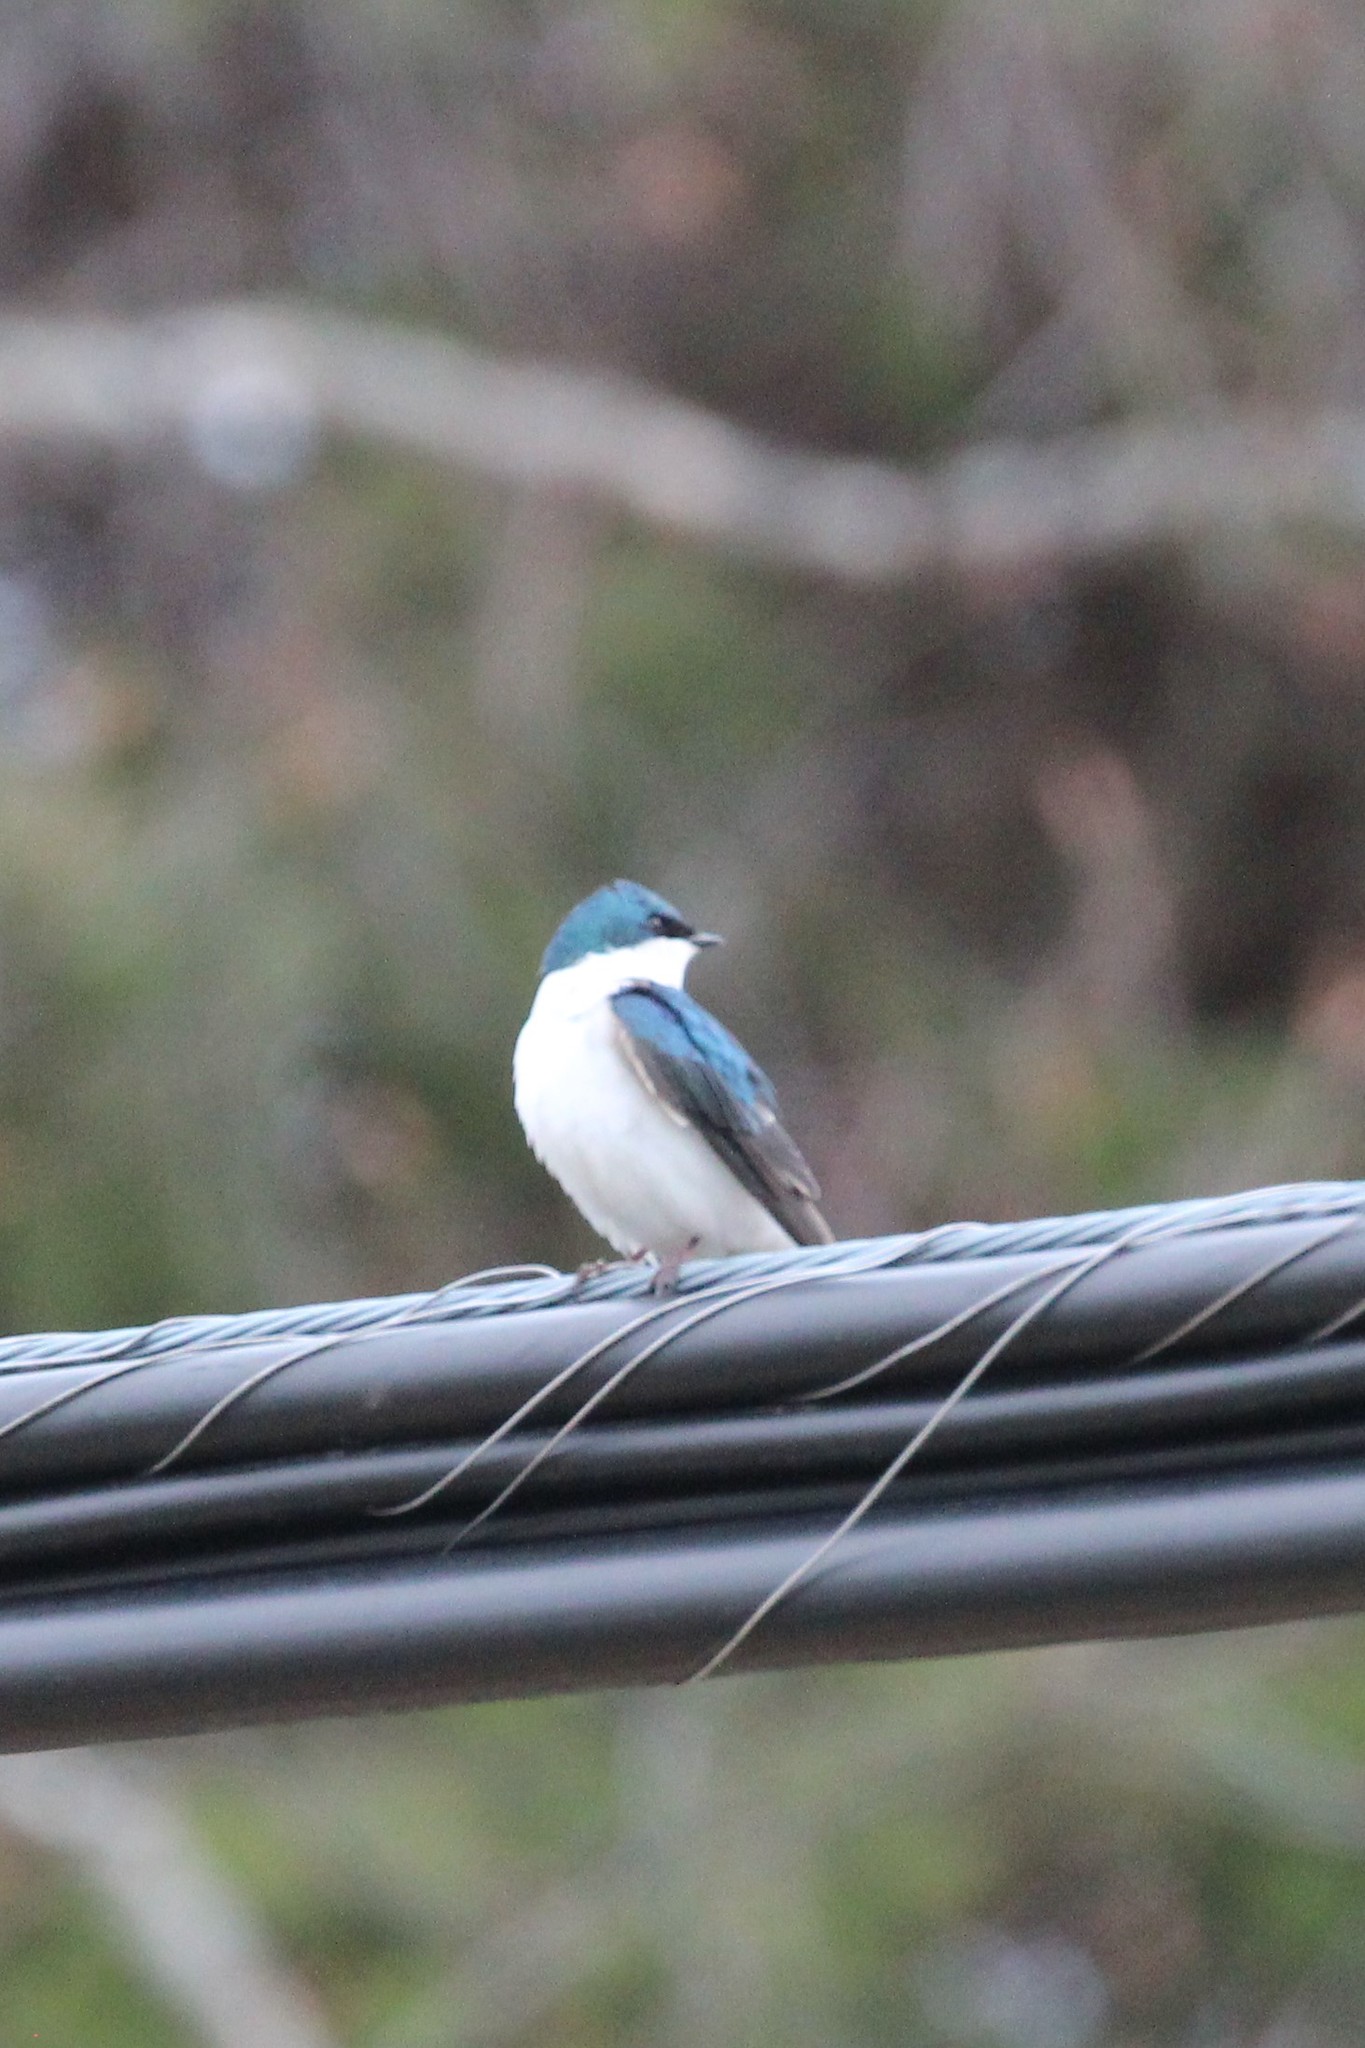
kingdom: Animalia
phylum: Chordata
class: Aves
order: Passeriformes
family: Hirundinidae
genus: Tachycineta
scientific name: Tachycineta bicolor
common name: Tree swallow
